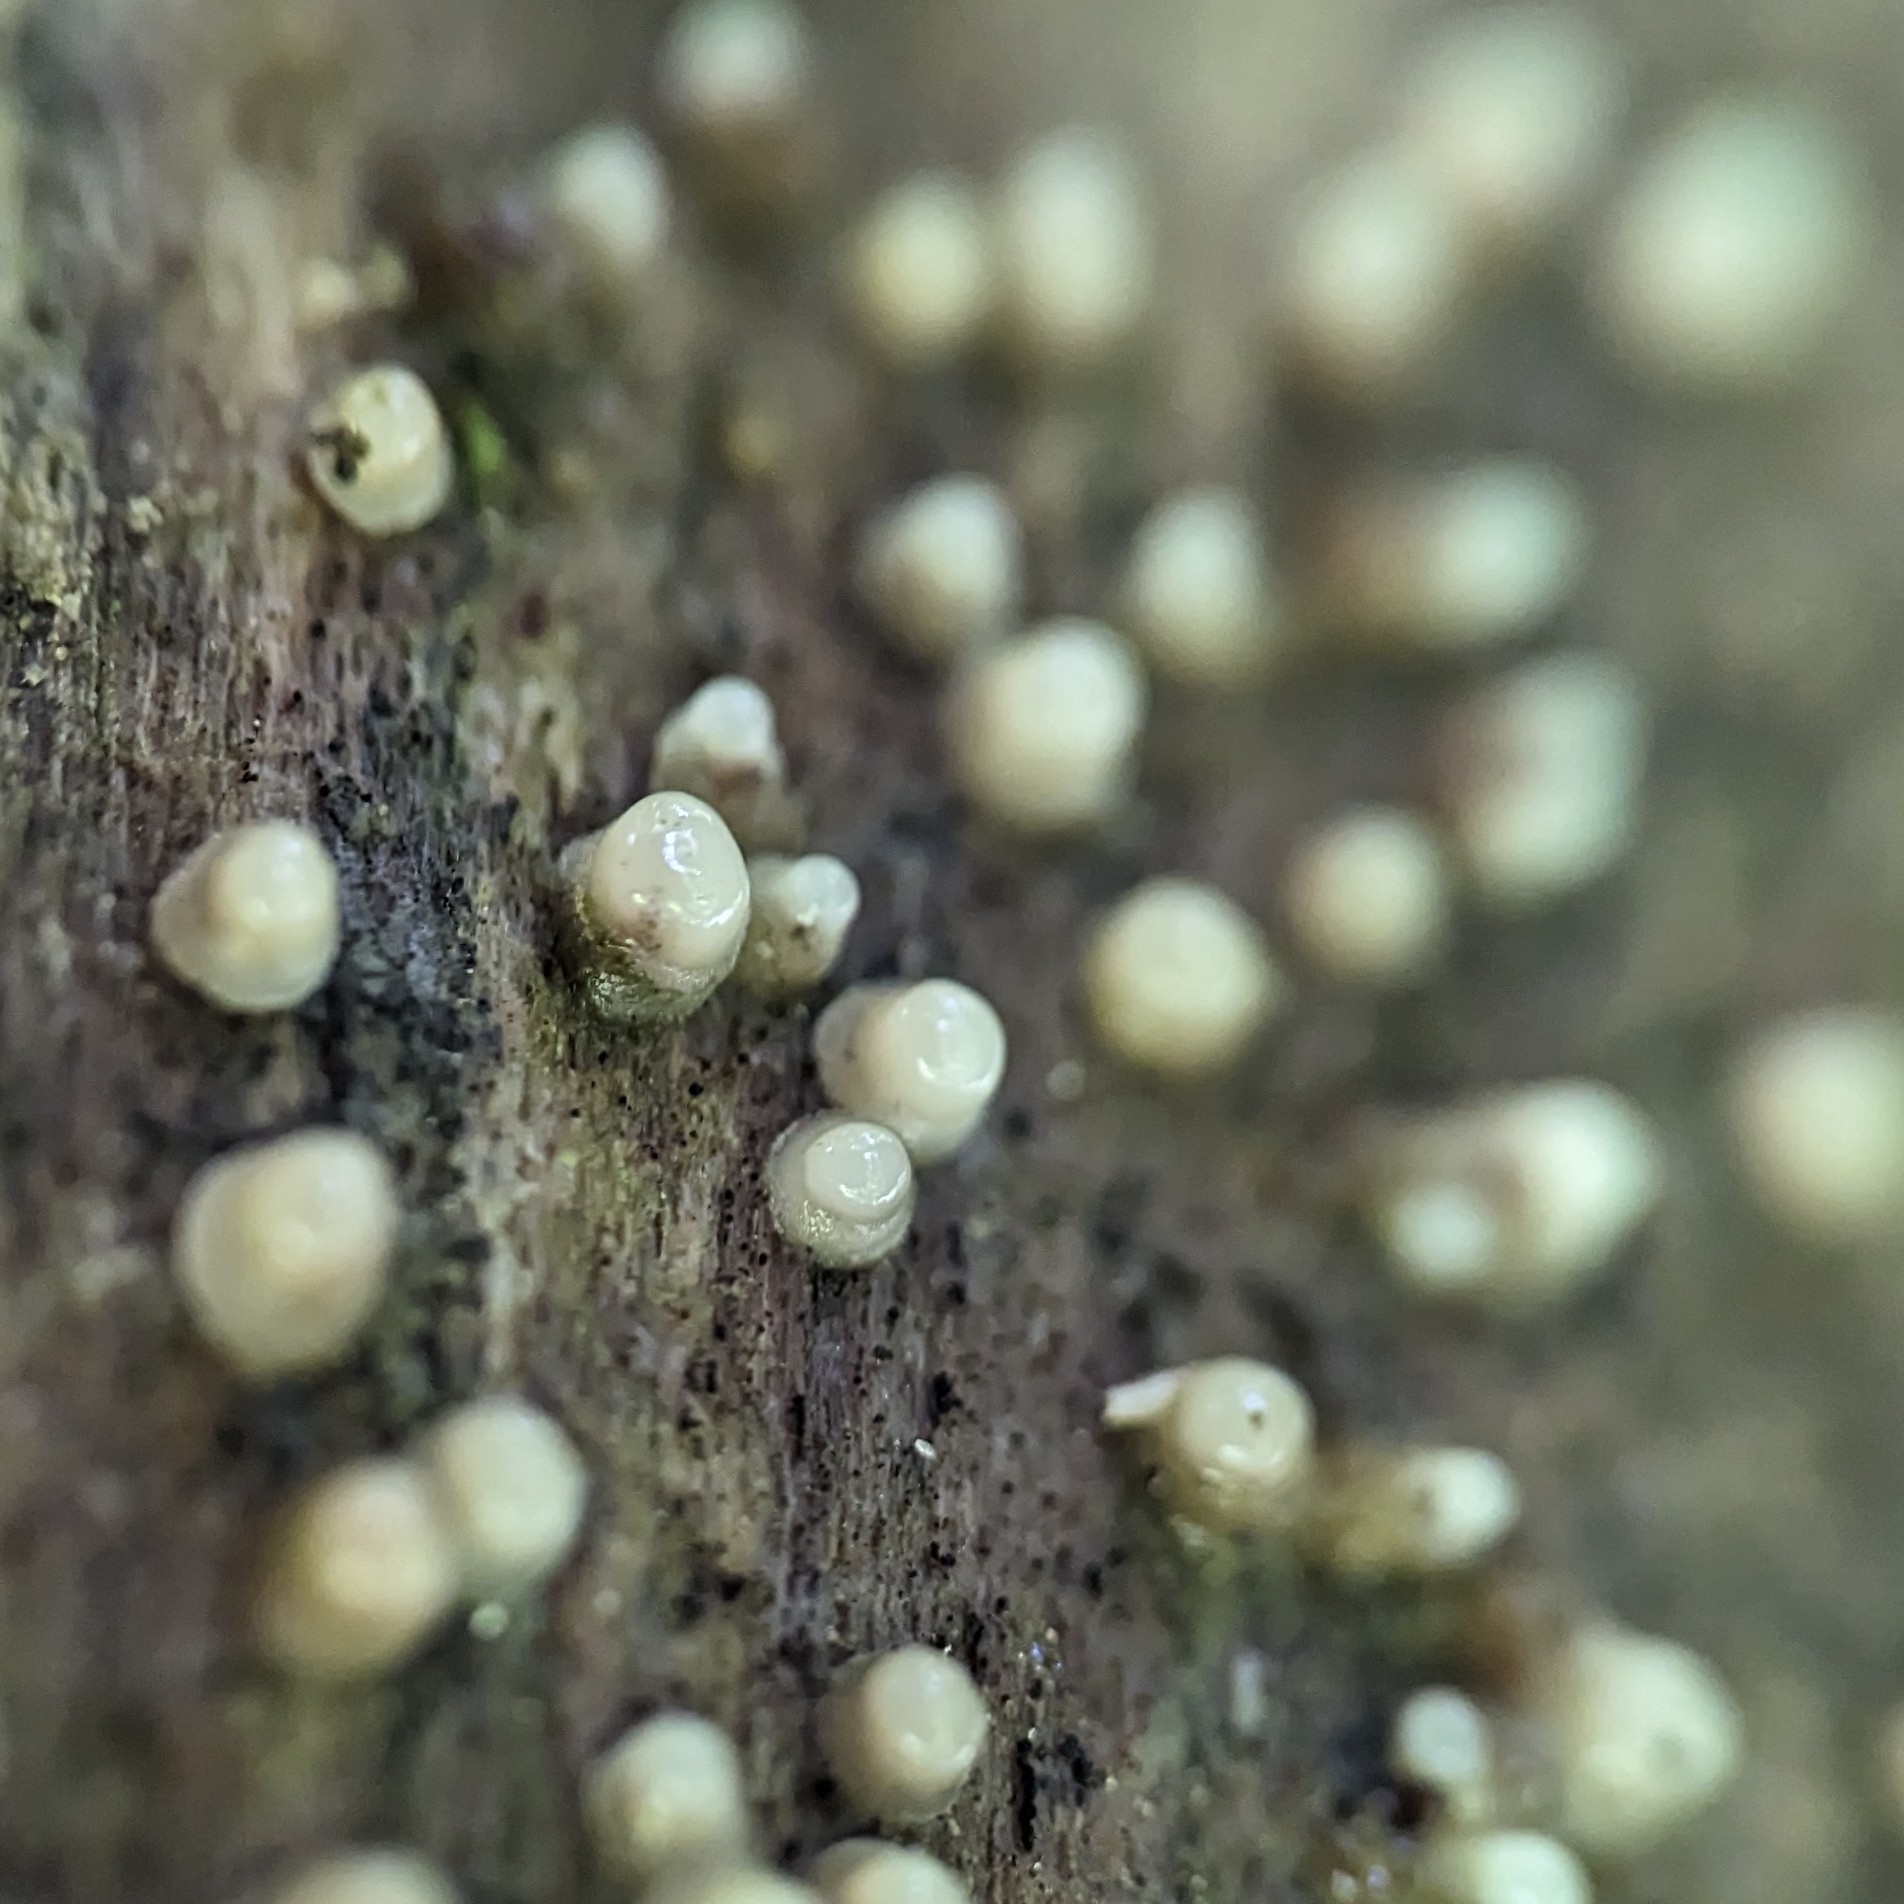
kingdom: Fungi
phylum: Basidiomycota
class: Atractiellomycetes
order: Atractiellales
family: Phleogenaceae
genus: Helicogloea
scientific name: Helicogloea compressa
